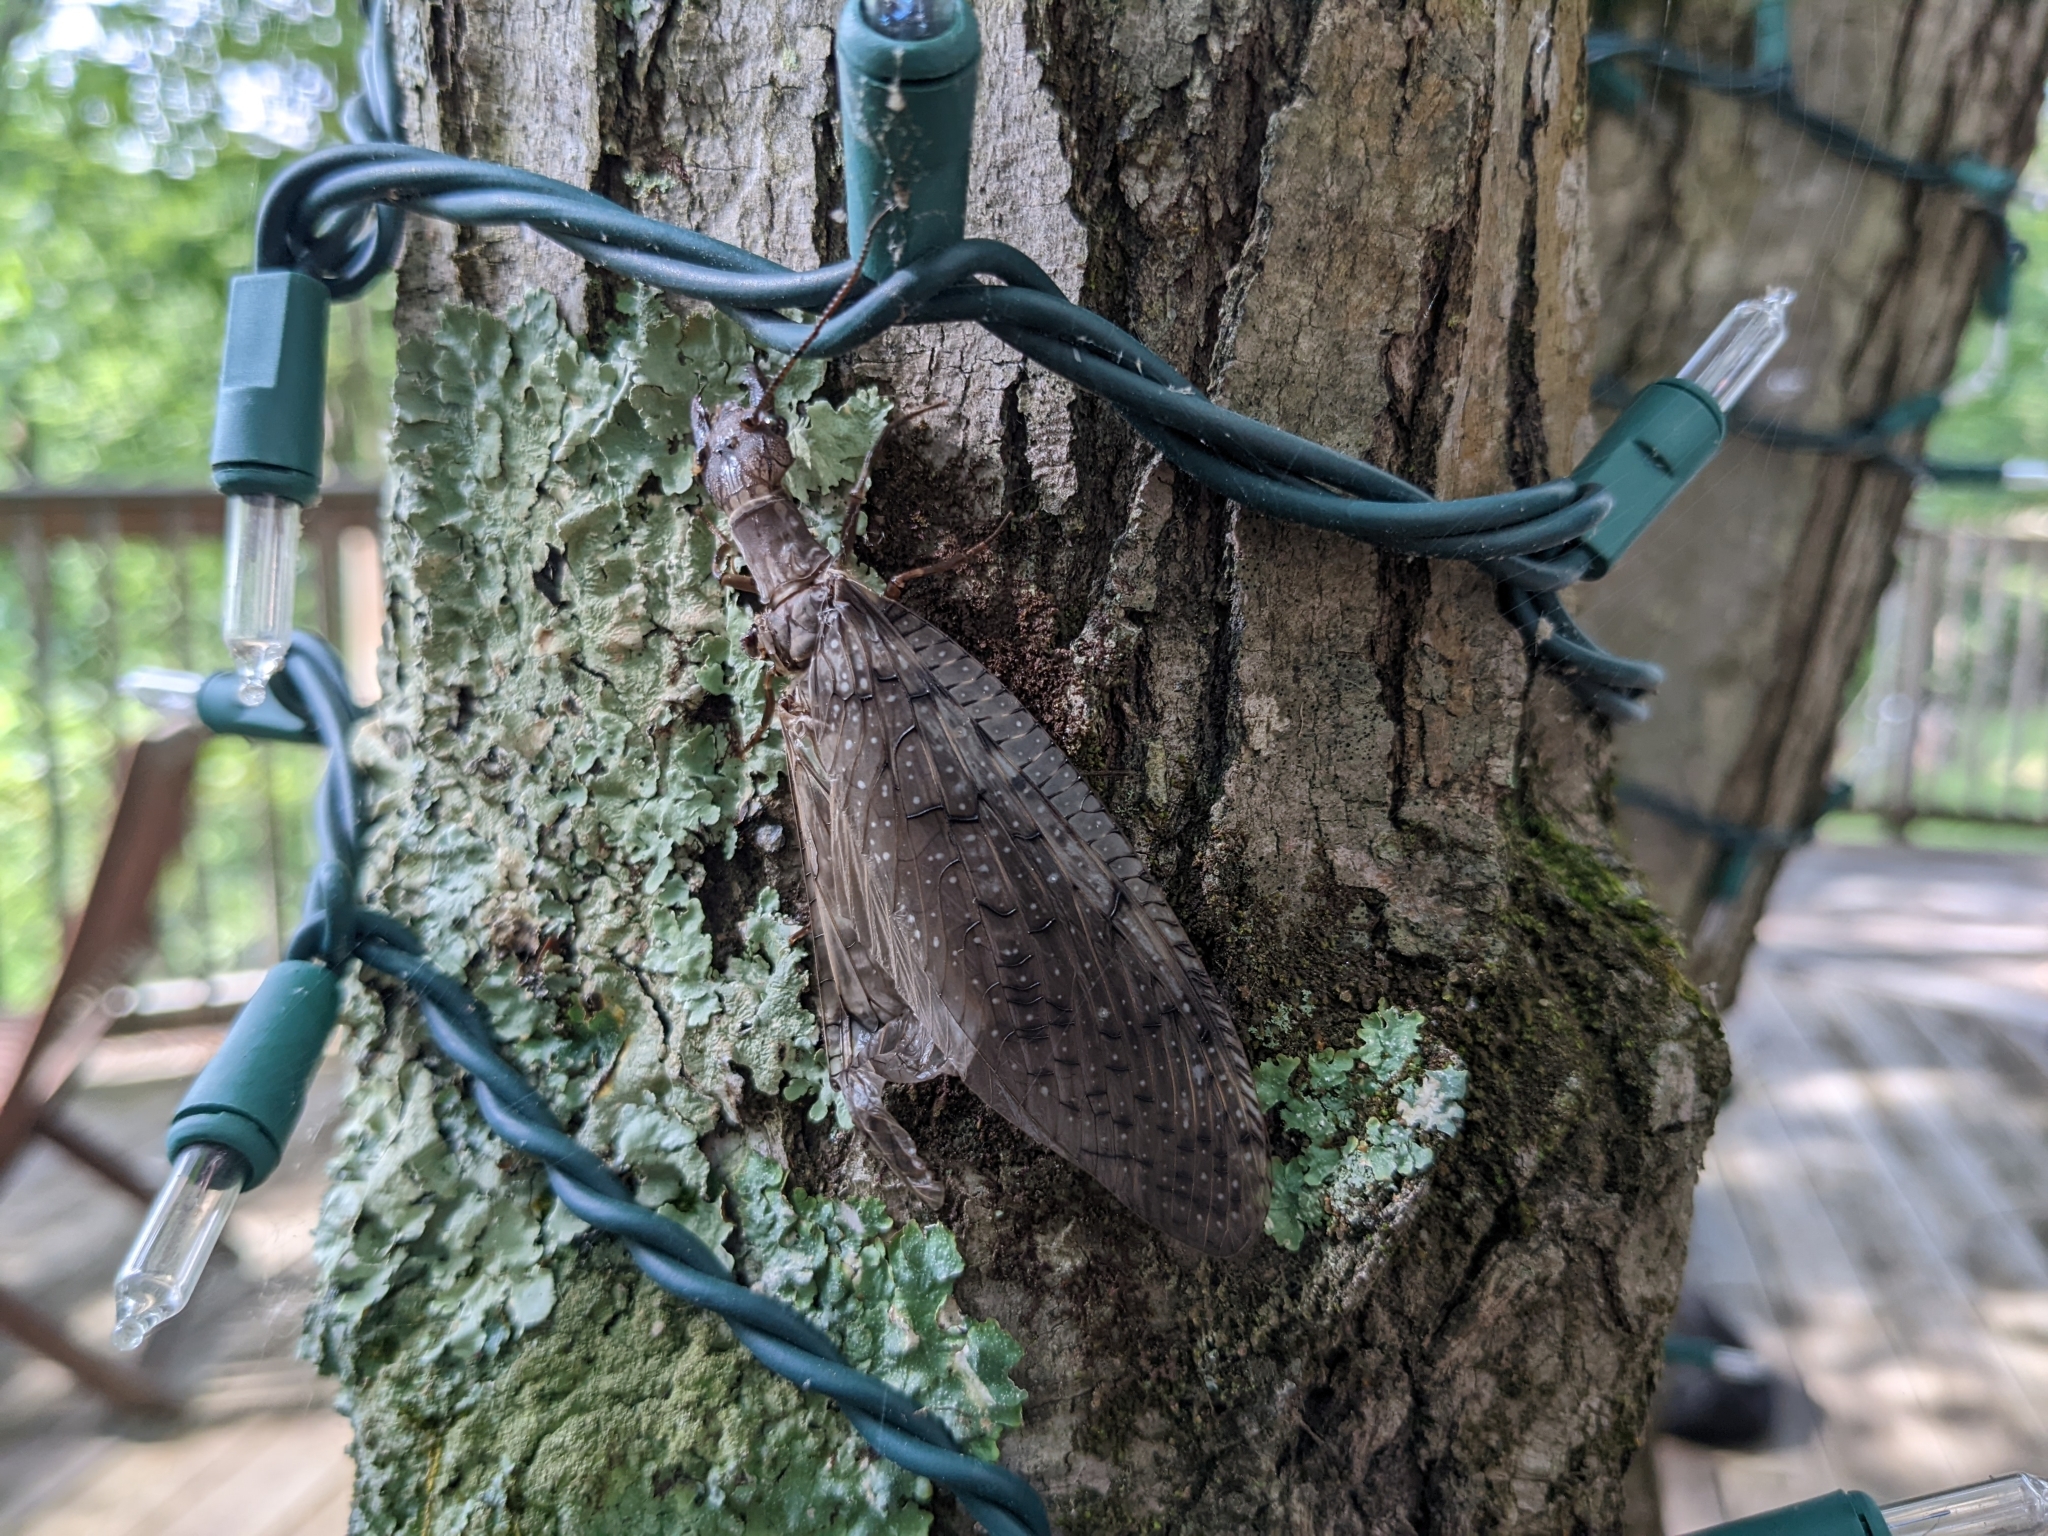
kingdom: Animalia
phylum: Arthropoda
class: Insecta
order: Megaloptera
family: Corydalidae
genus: Corydalus
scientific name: Corydalus cornutus
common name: Dobsonfly
